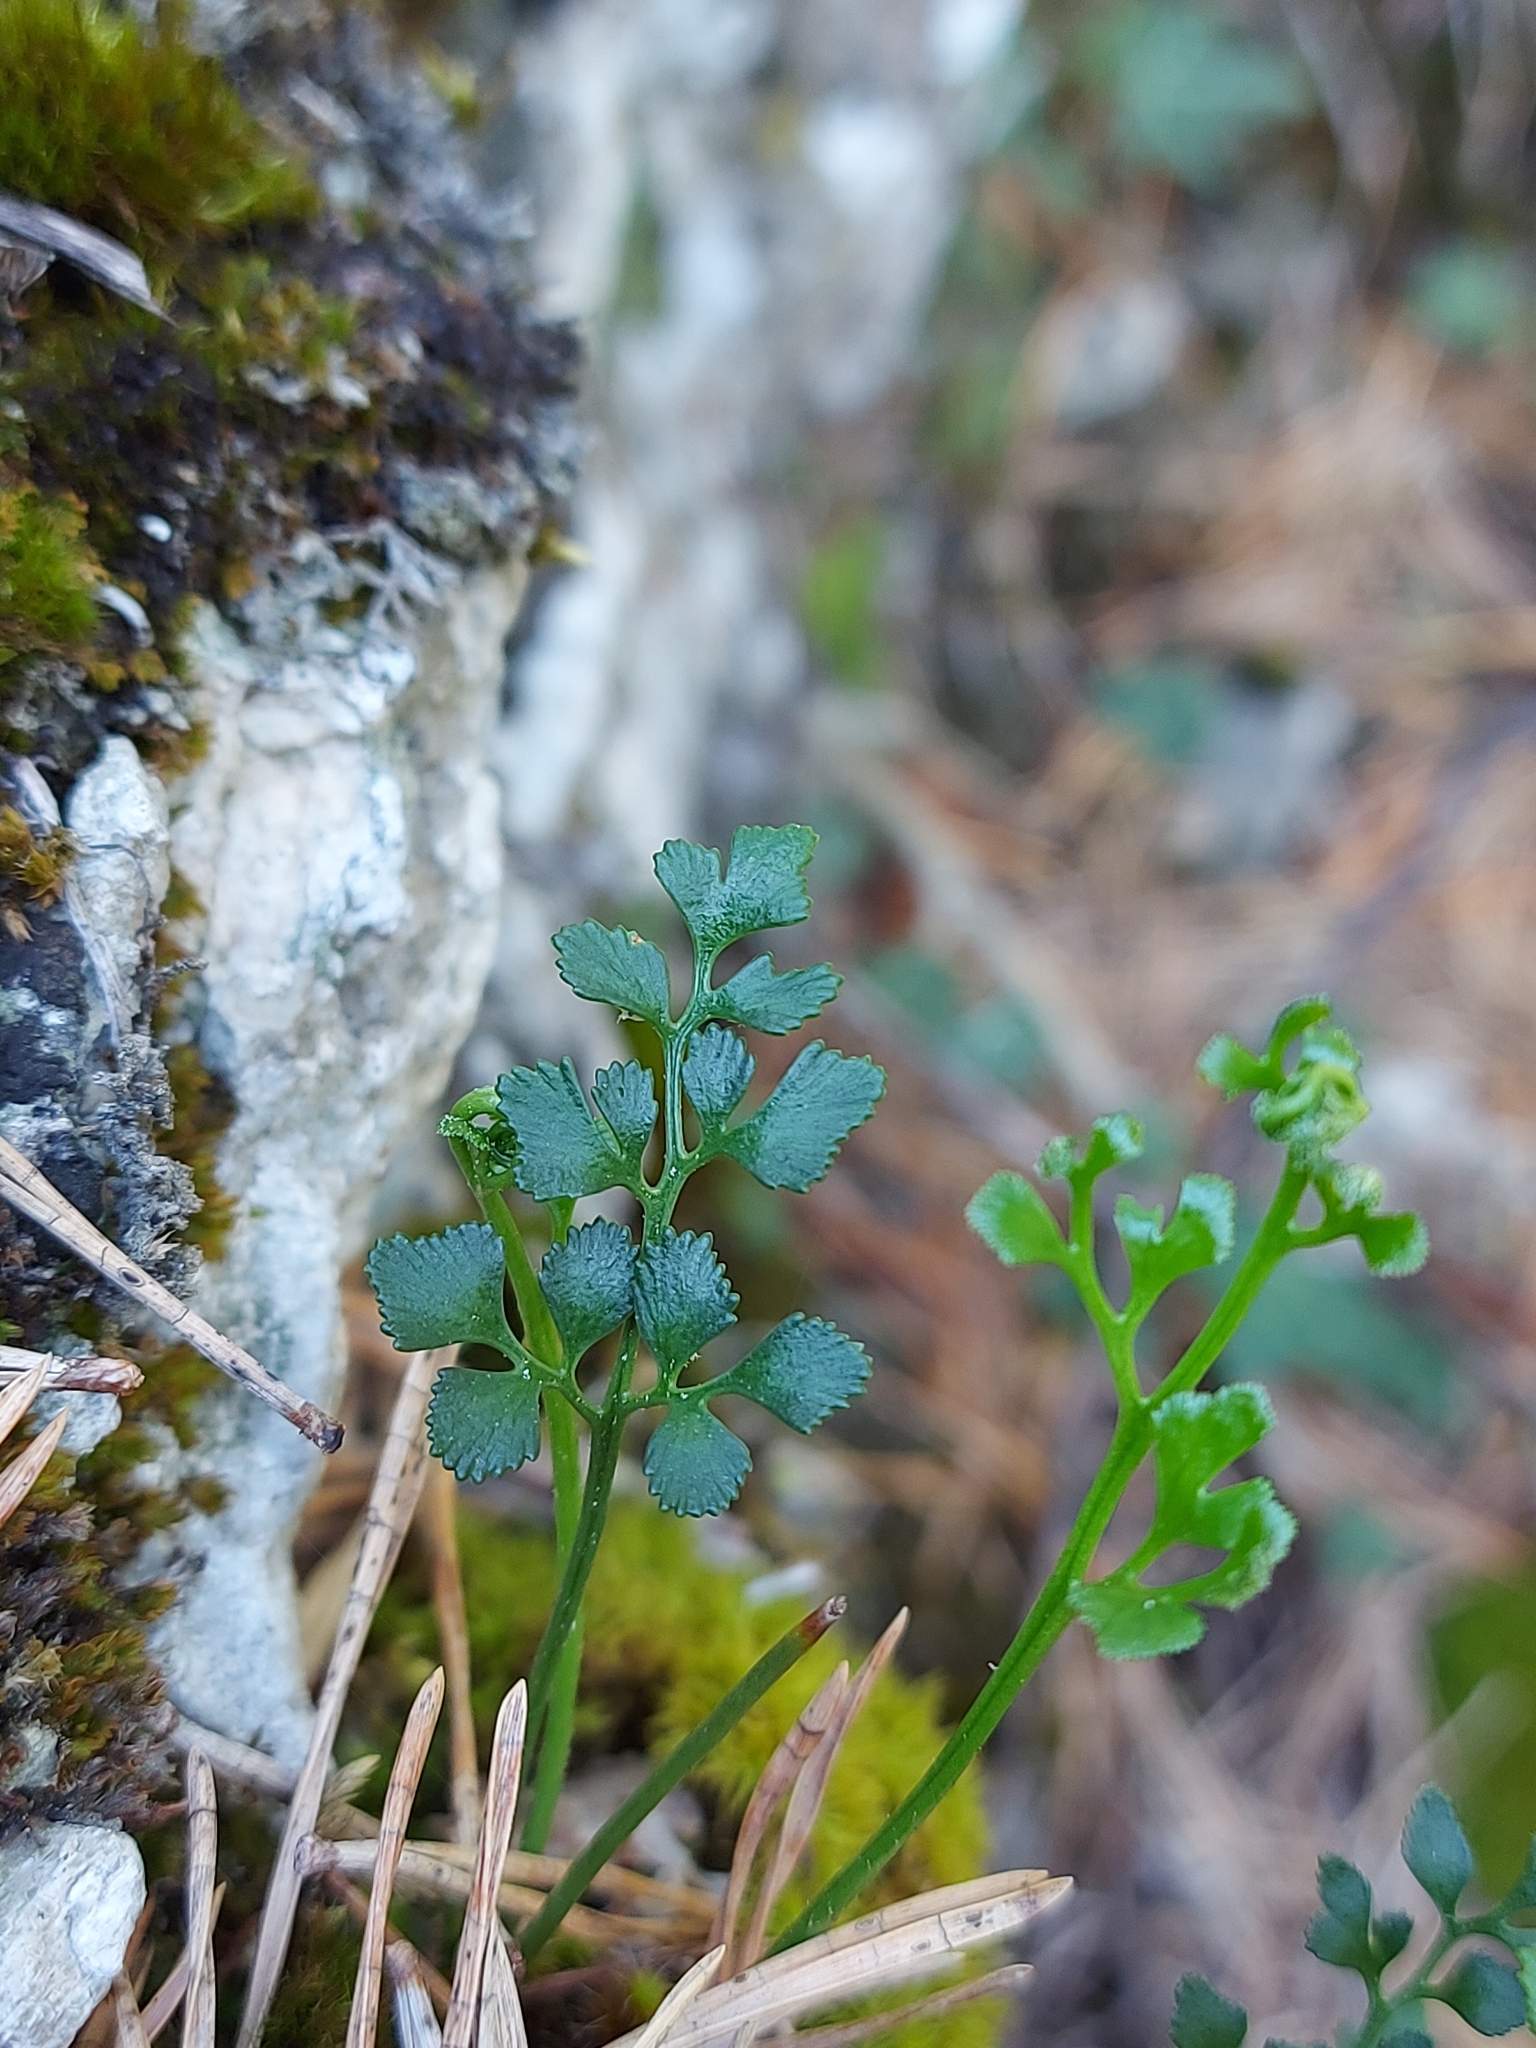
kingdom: Plantae
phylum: Tracheophyta
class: Polypodiopsida
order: Polypodiales
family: Aspleniaceae
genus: Asplenium
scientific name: Asplenium ruta-muraria
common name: Wall-rue
